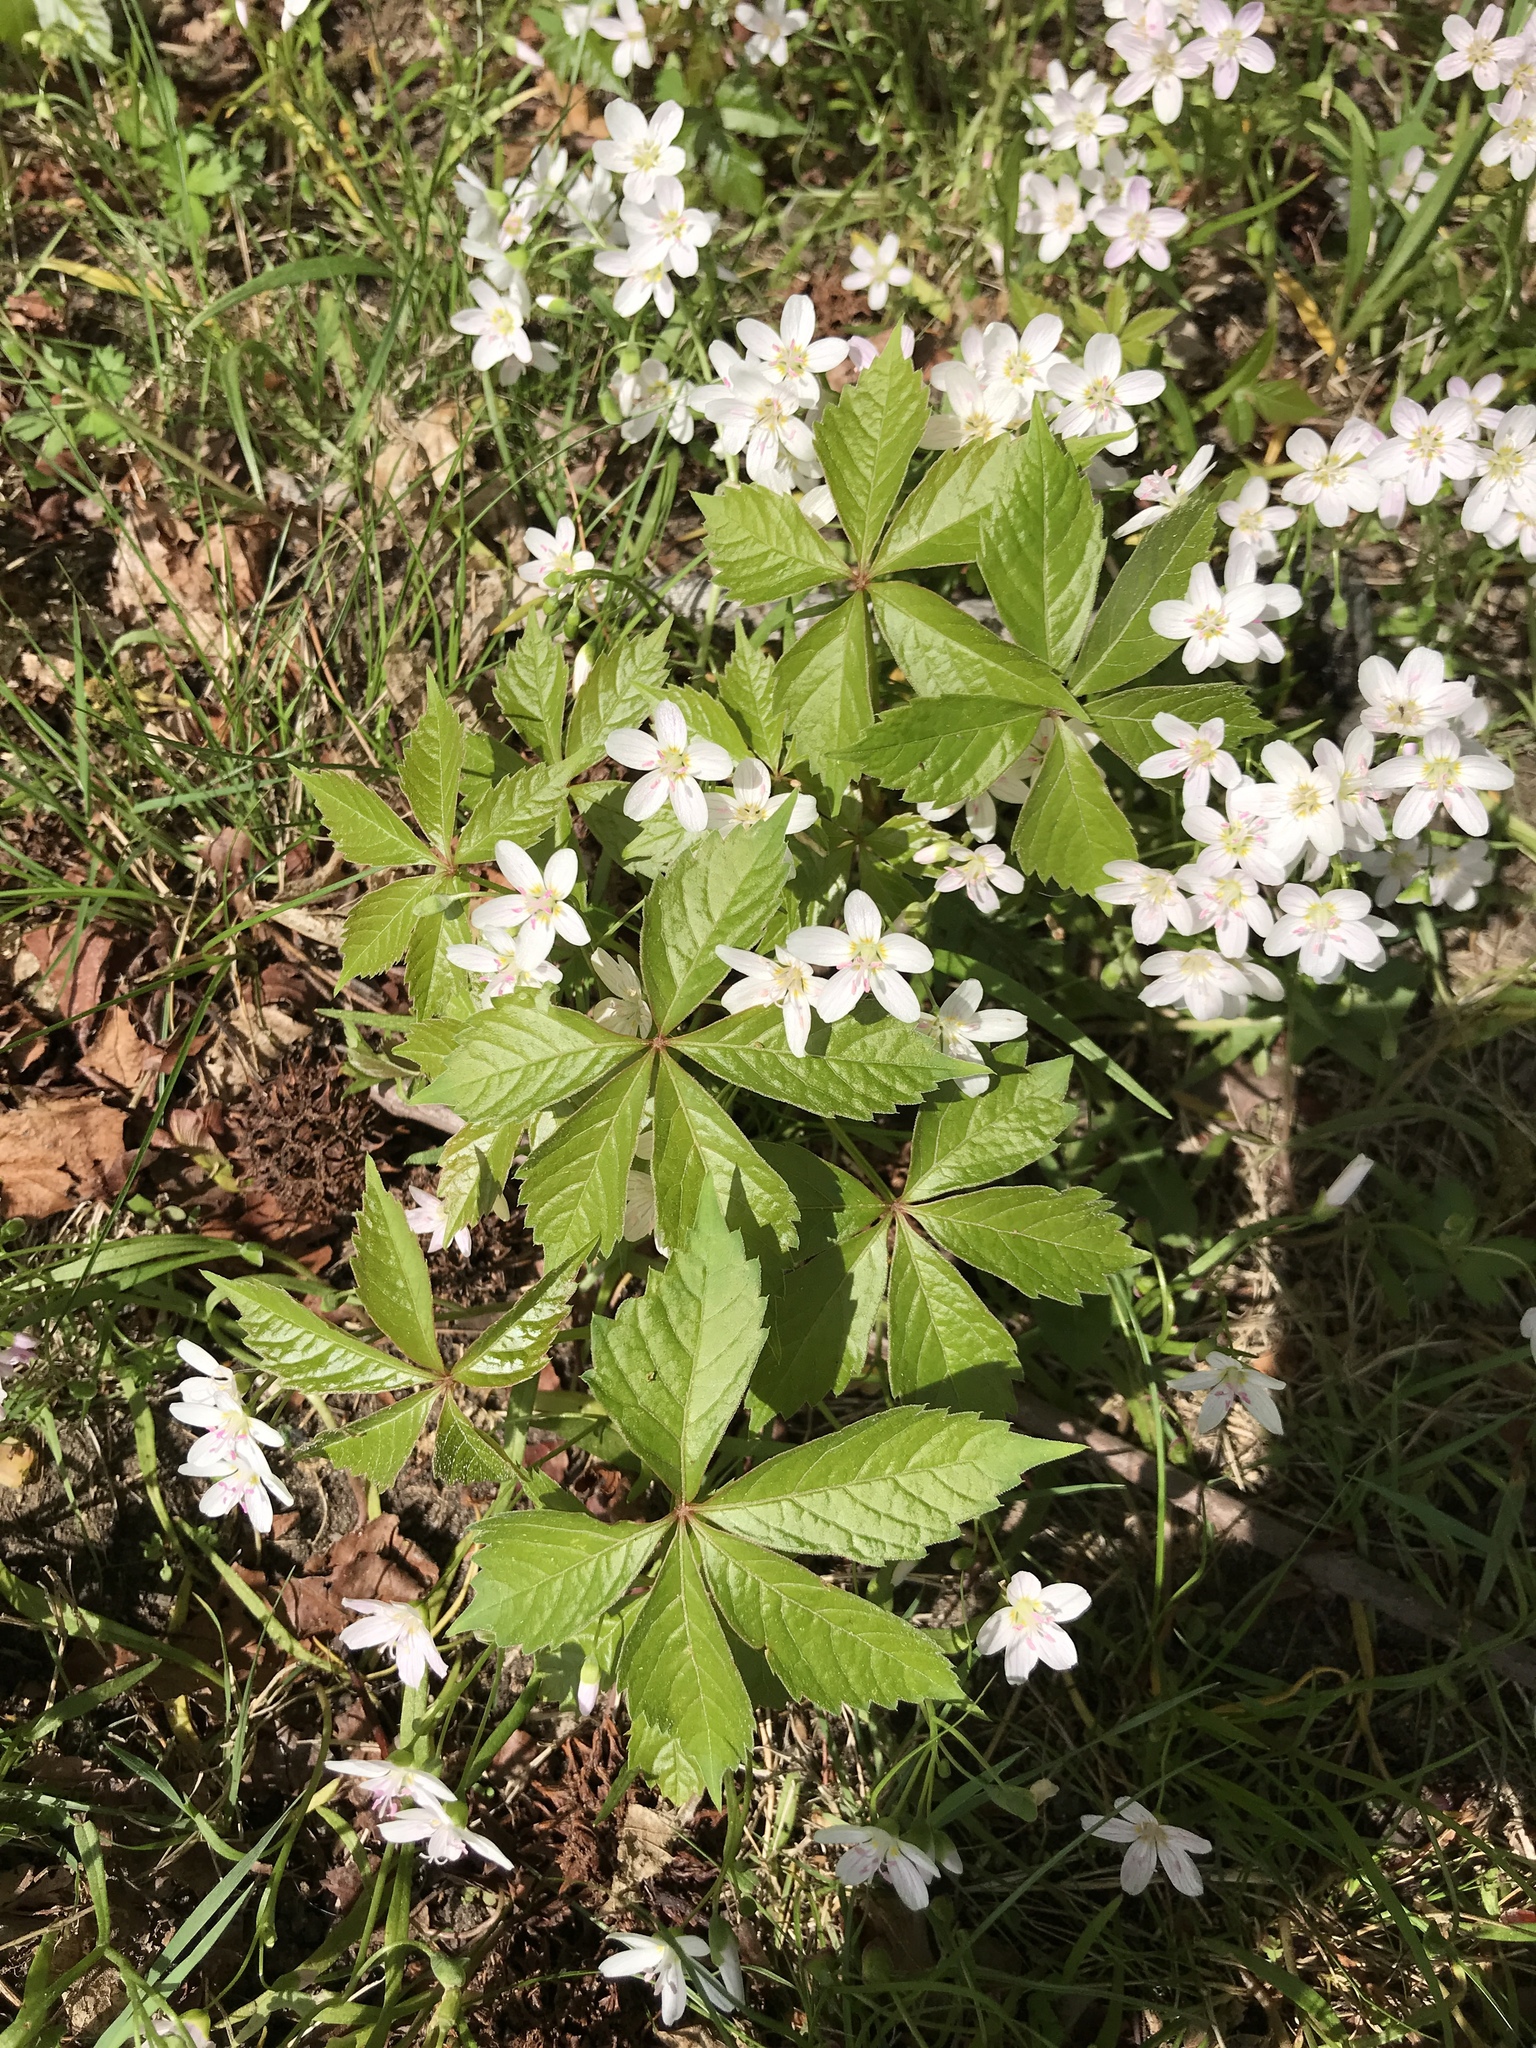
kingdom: Plantae
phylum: Tracheophyta
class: Magnoliopsida
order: Vitales
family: Vitaceae
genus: Parthenocissus
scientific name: Parthenocissus quinquefolia
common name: Virginia-creeper
